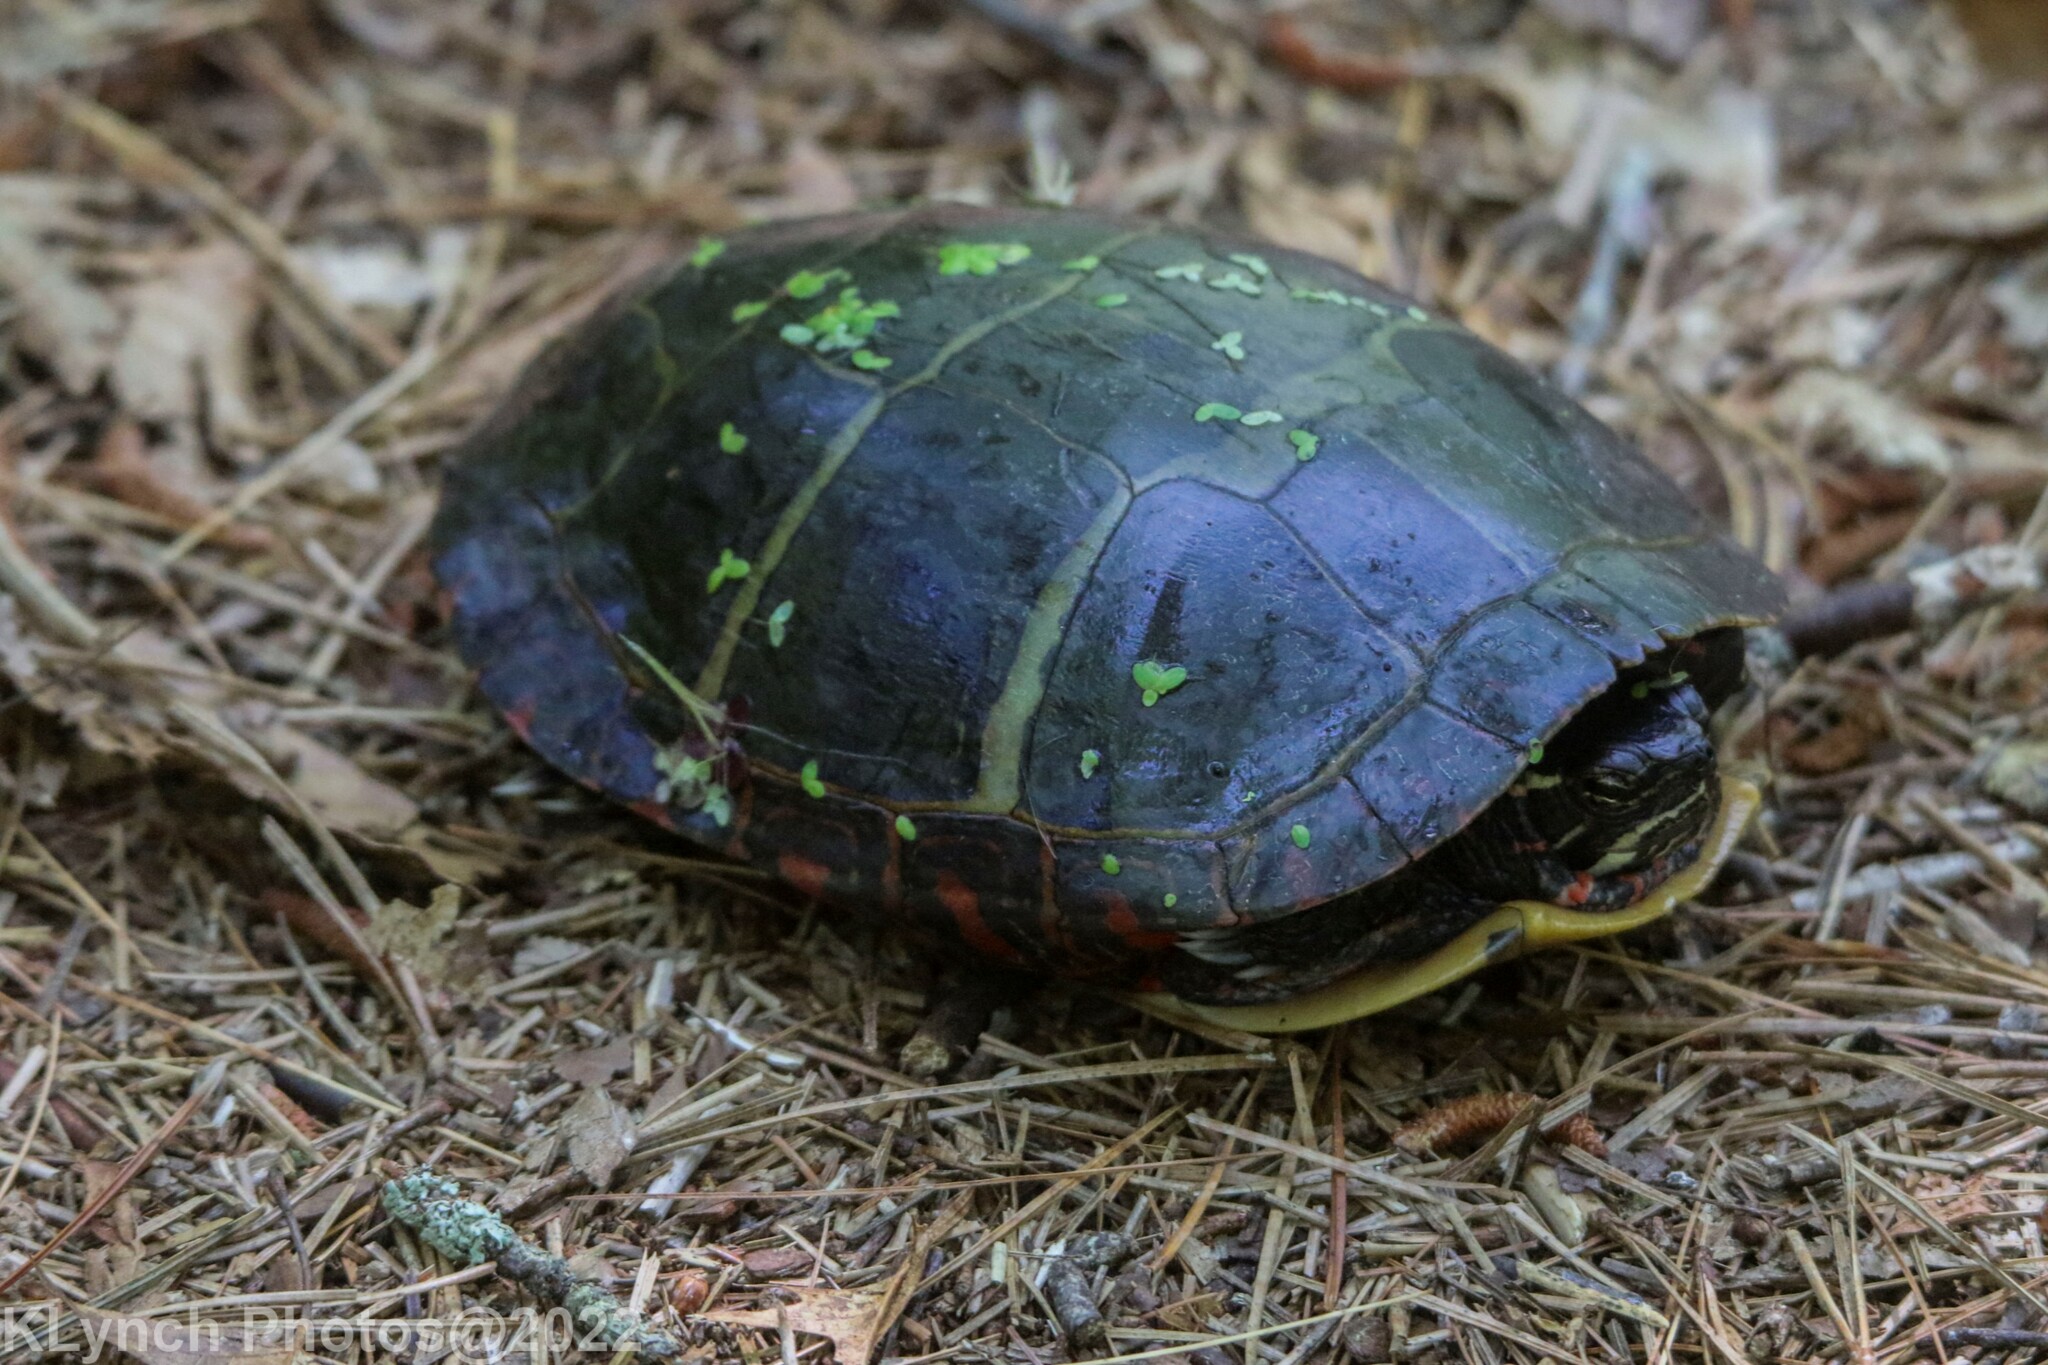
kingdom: Animalia
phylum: Chordata
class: Testudines
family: Emydidae
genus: Chrysemys
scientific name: Chrysemys picta
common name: Painted turtle
